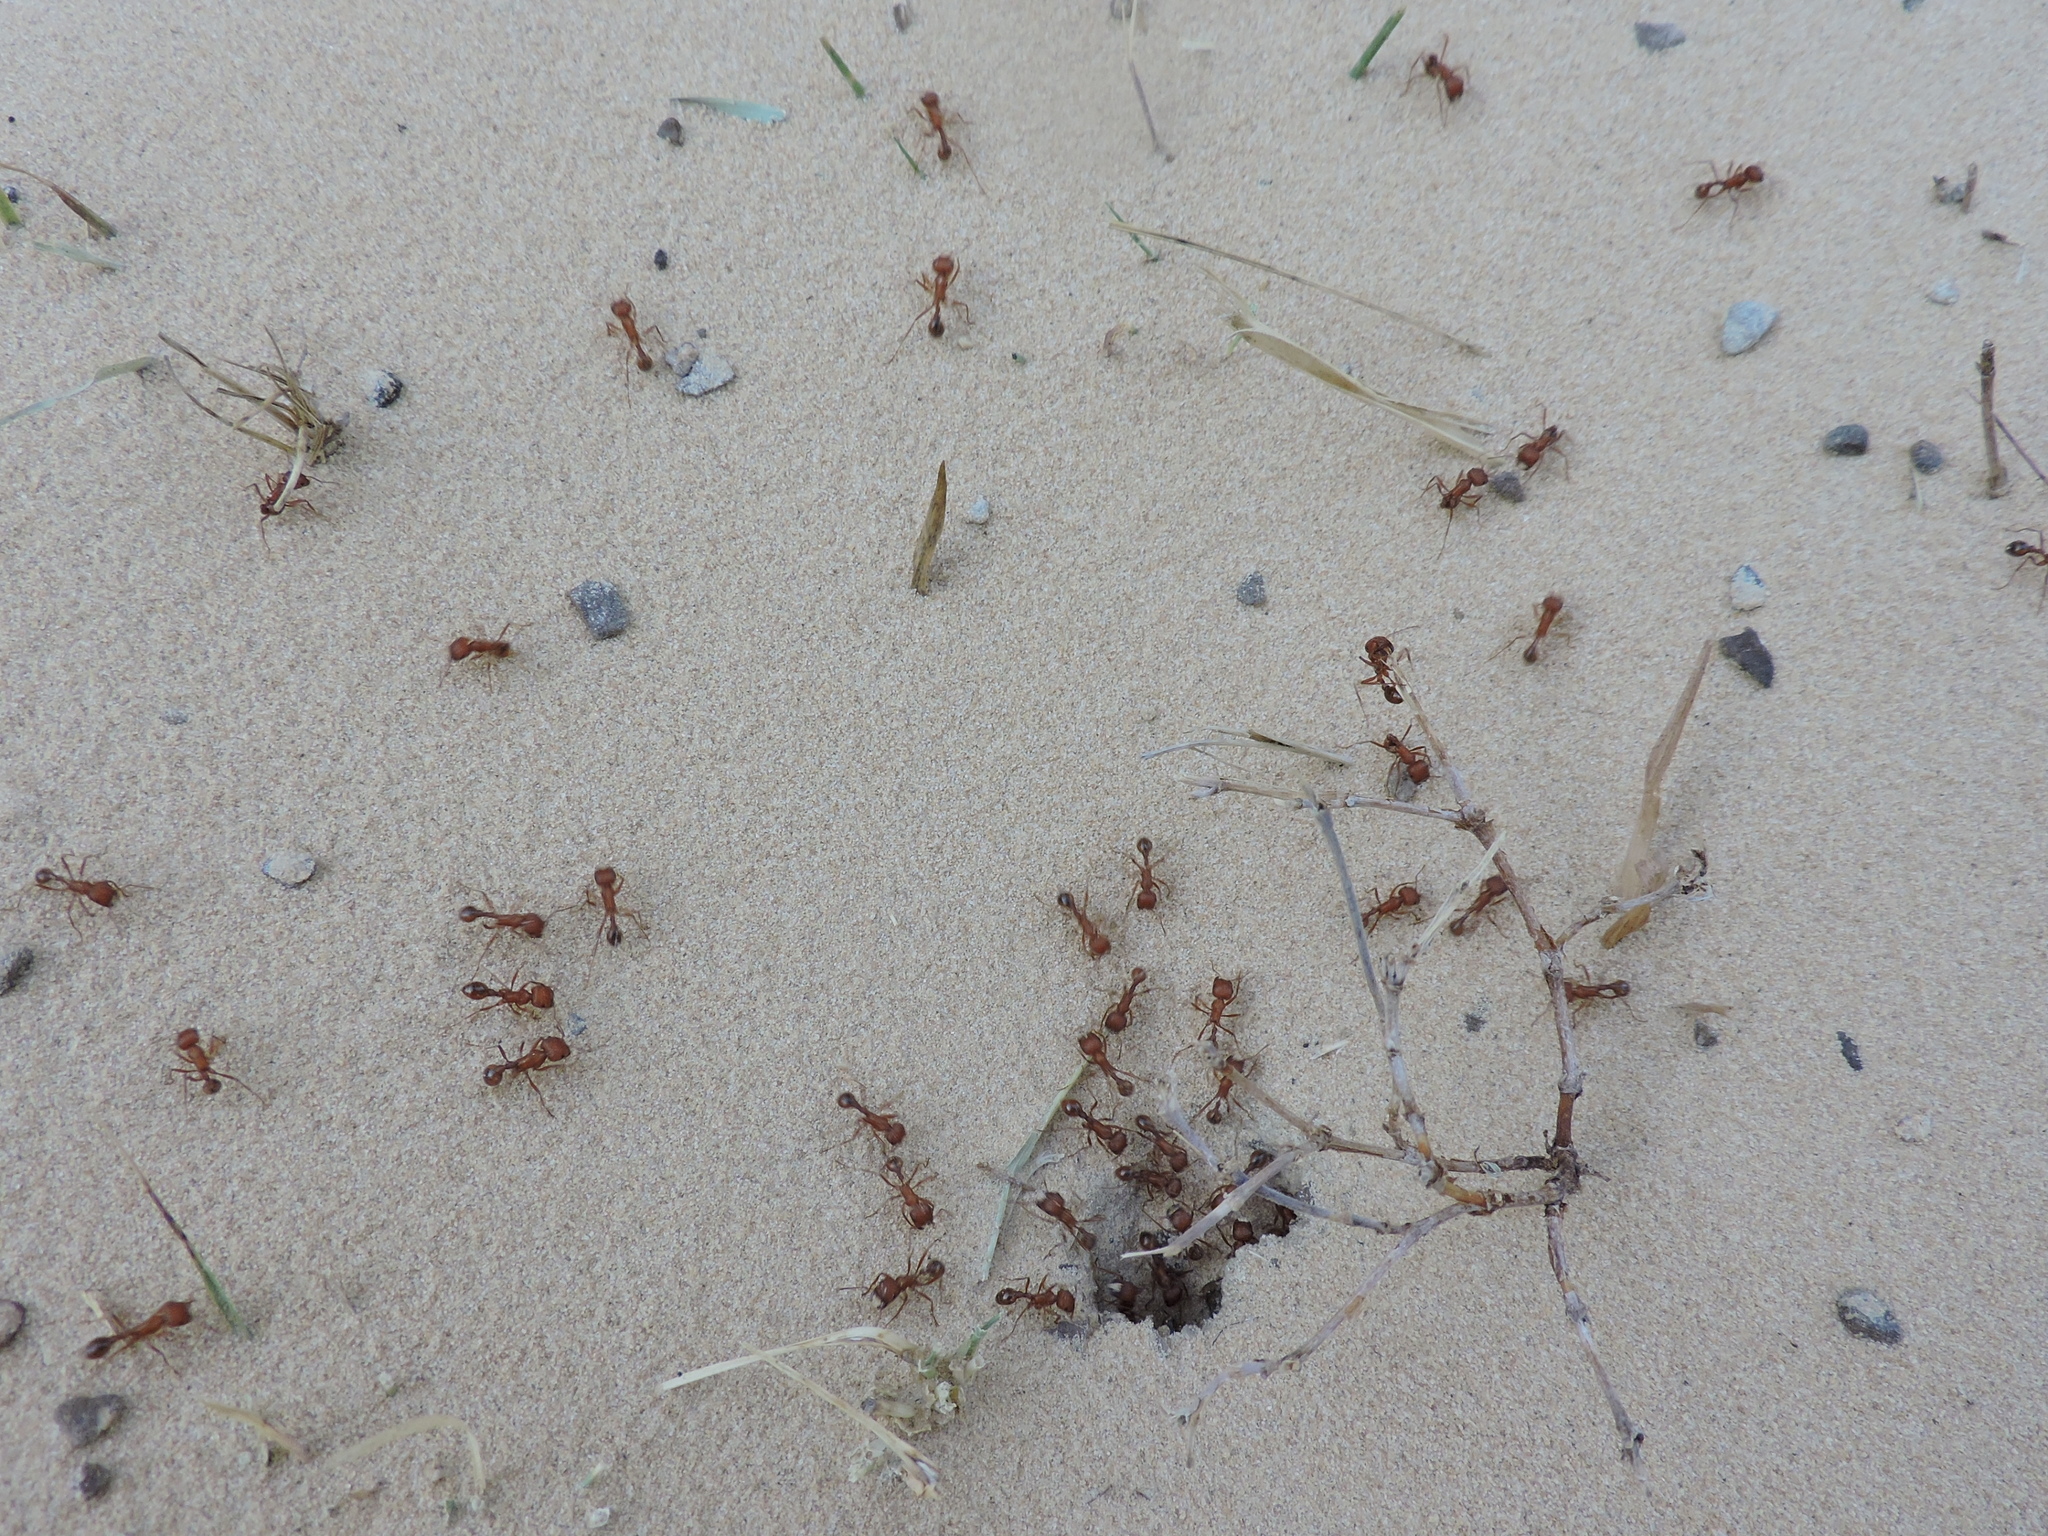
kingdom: Animalia
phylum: Arthropoda
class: Insecta
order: Hymenoptera
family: Formicidae
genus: Pogonomyrmex
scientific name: Pogonomyrmex barbatus
